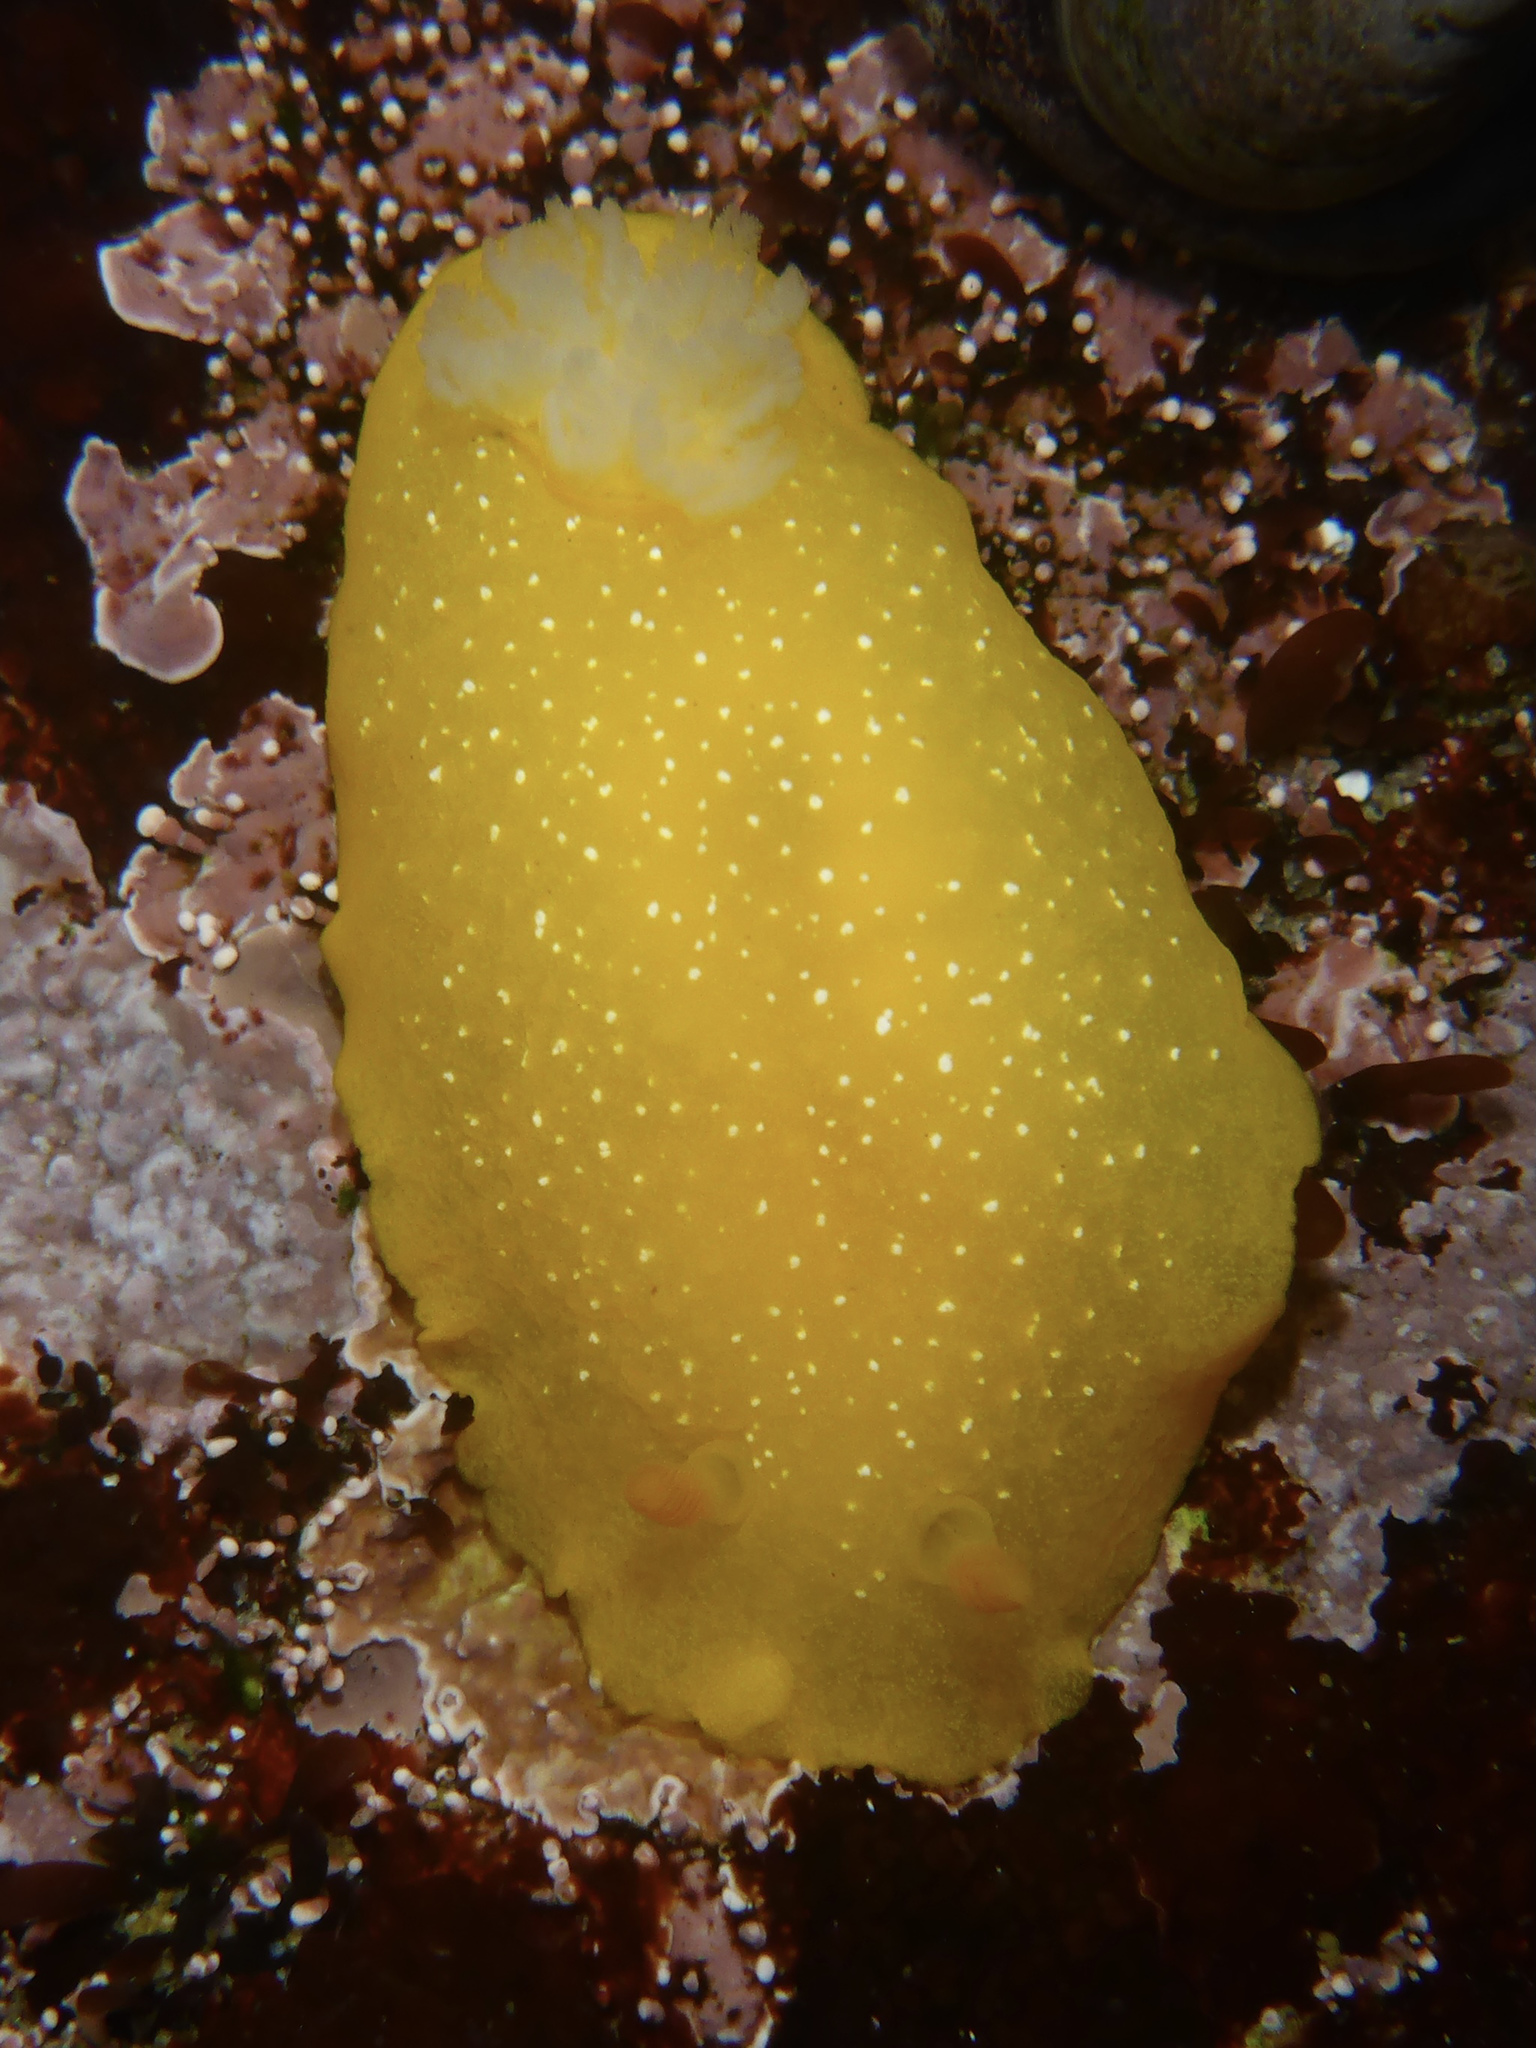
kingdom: Animalia
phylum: Mollusca
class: Gastropoda
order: Nudibranchia
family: Dendrodorididae
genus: Doriopsilla
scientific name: Doriopsilla fulva
